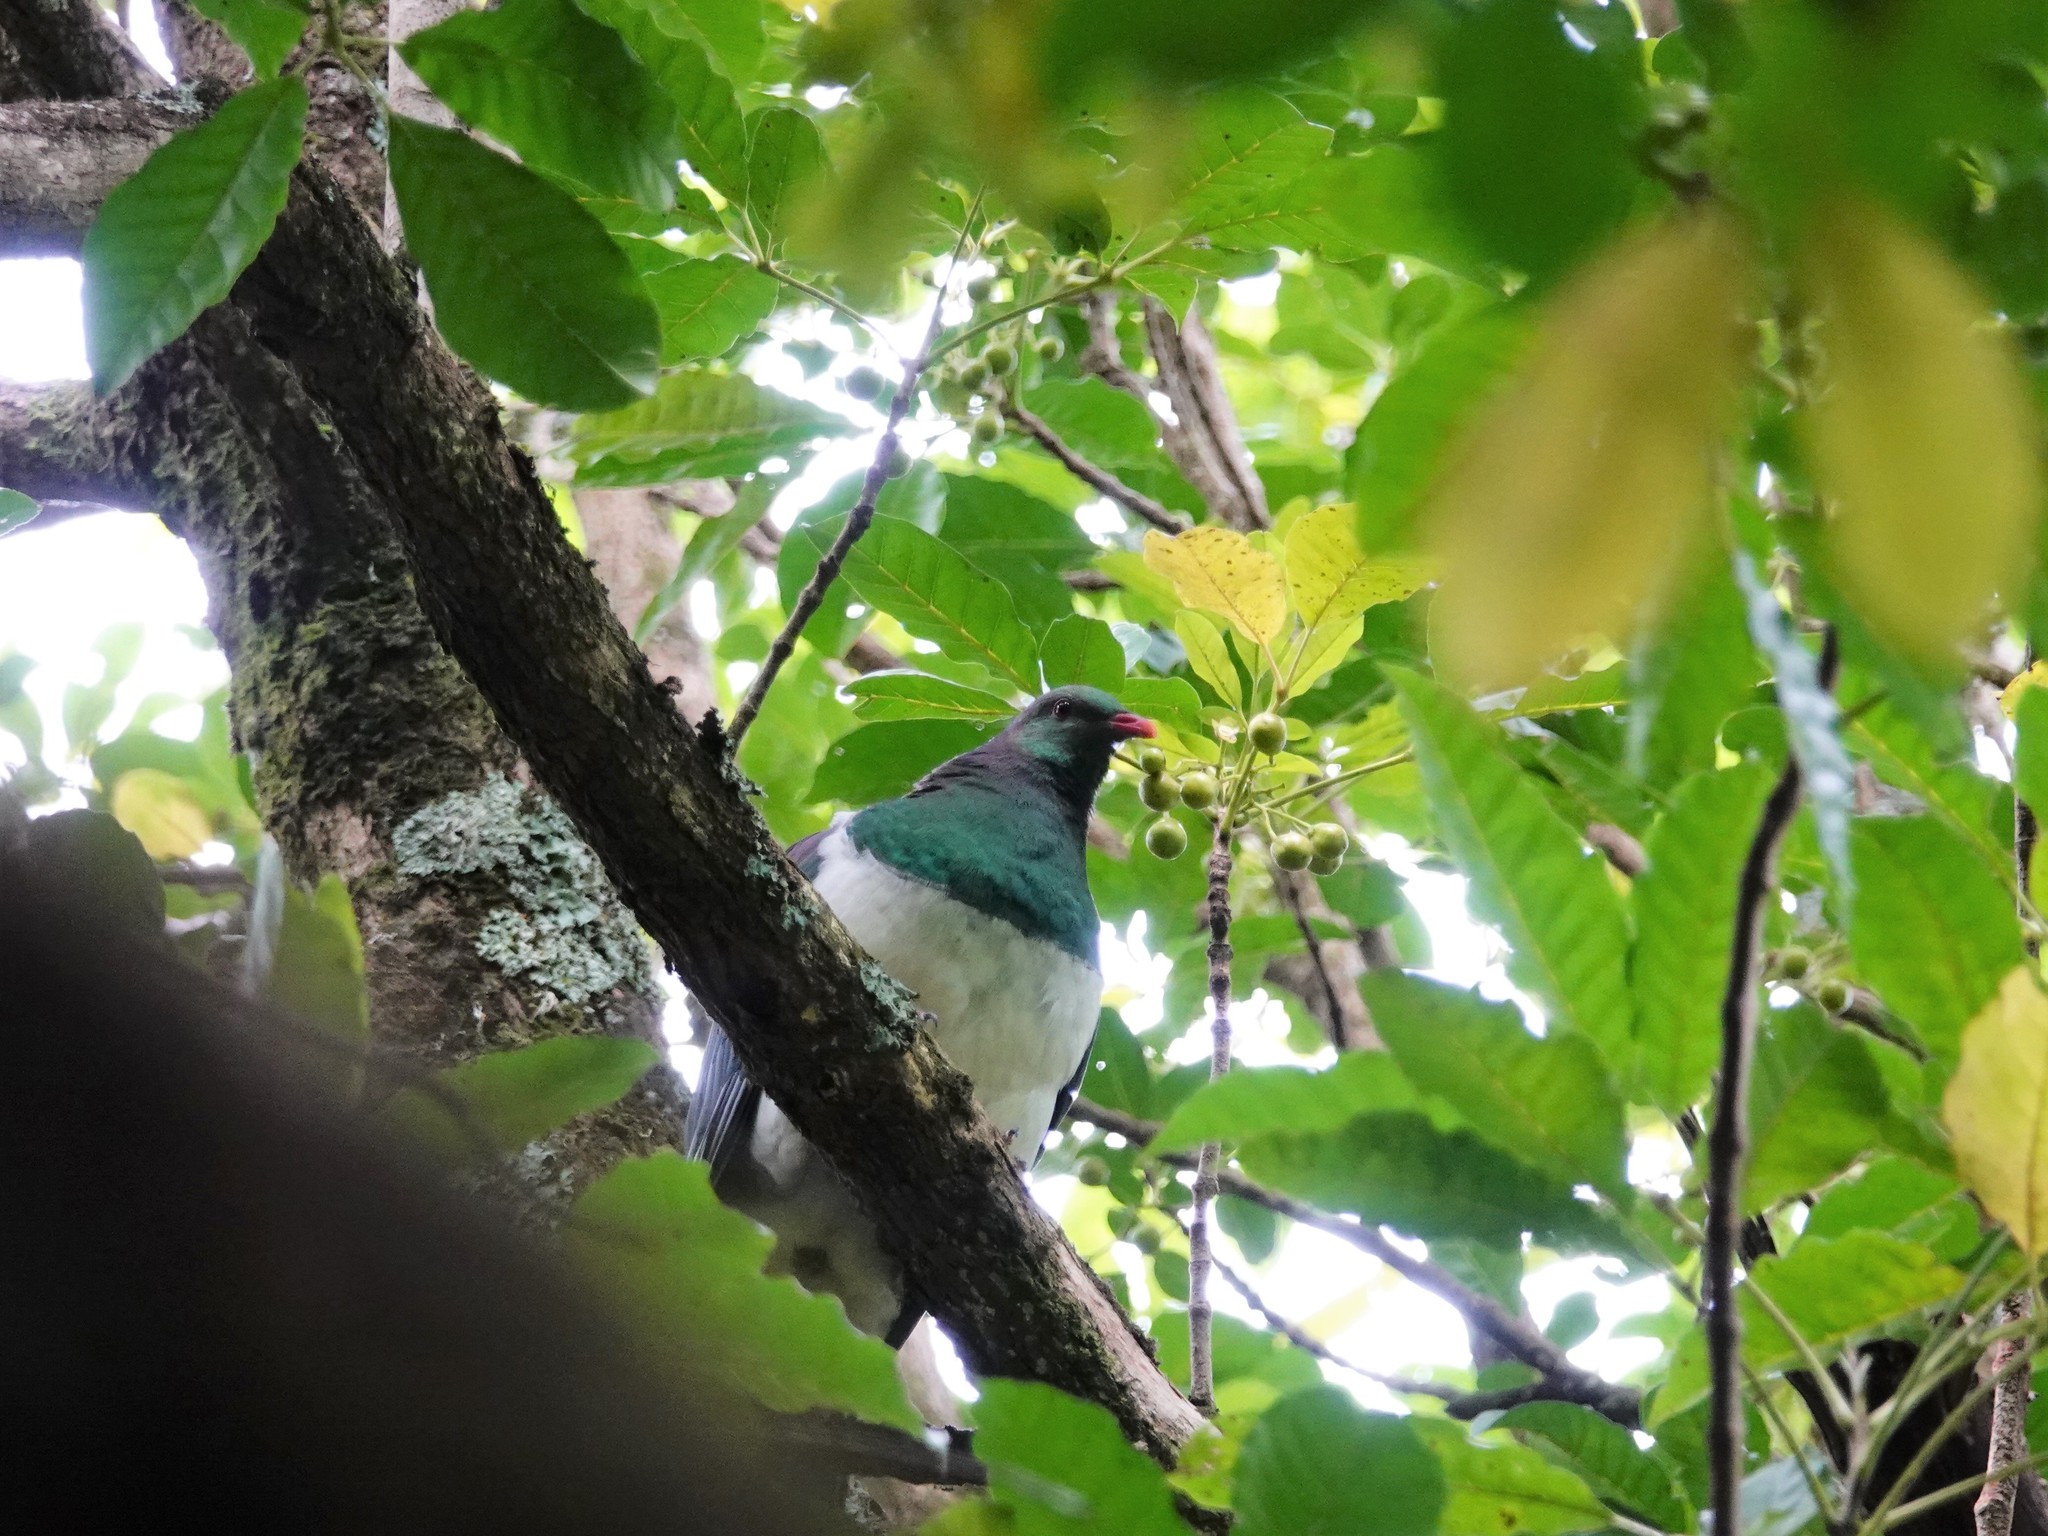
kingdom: Animalia
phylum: Chordata
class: Aves
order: Columbiformes
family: Columbidae
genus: Hemiphaga
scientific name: Hemiphaga novaeseelandiae
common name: New zealand pigeon
